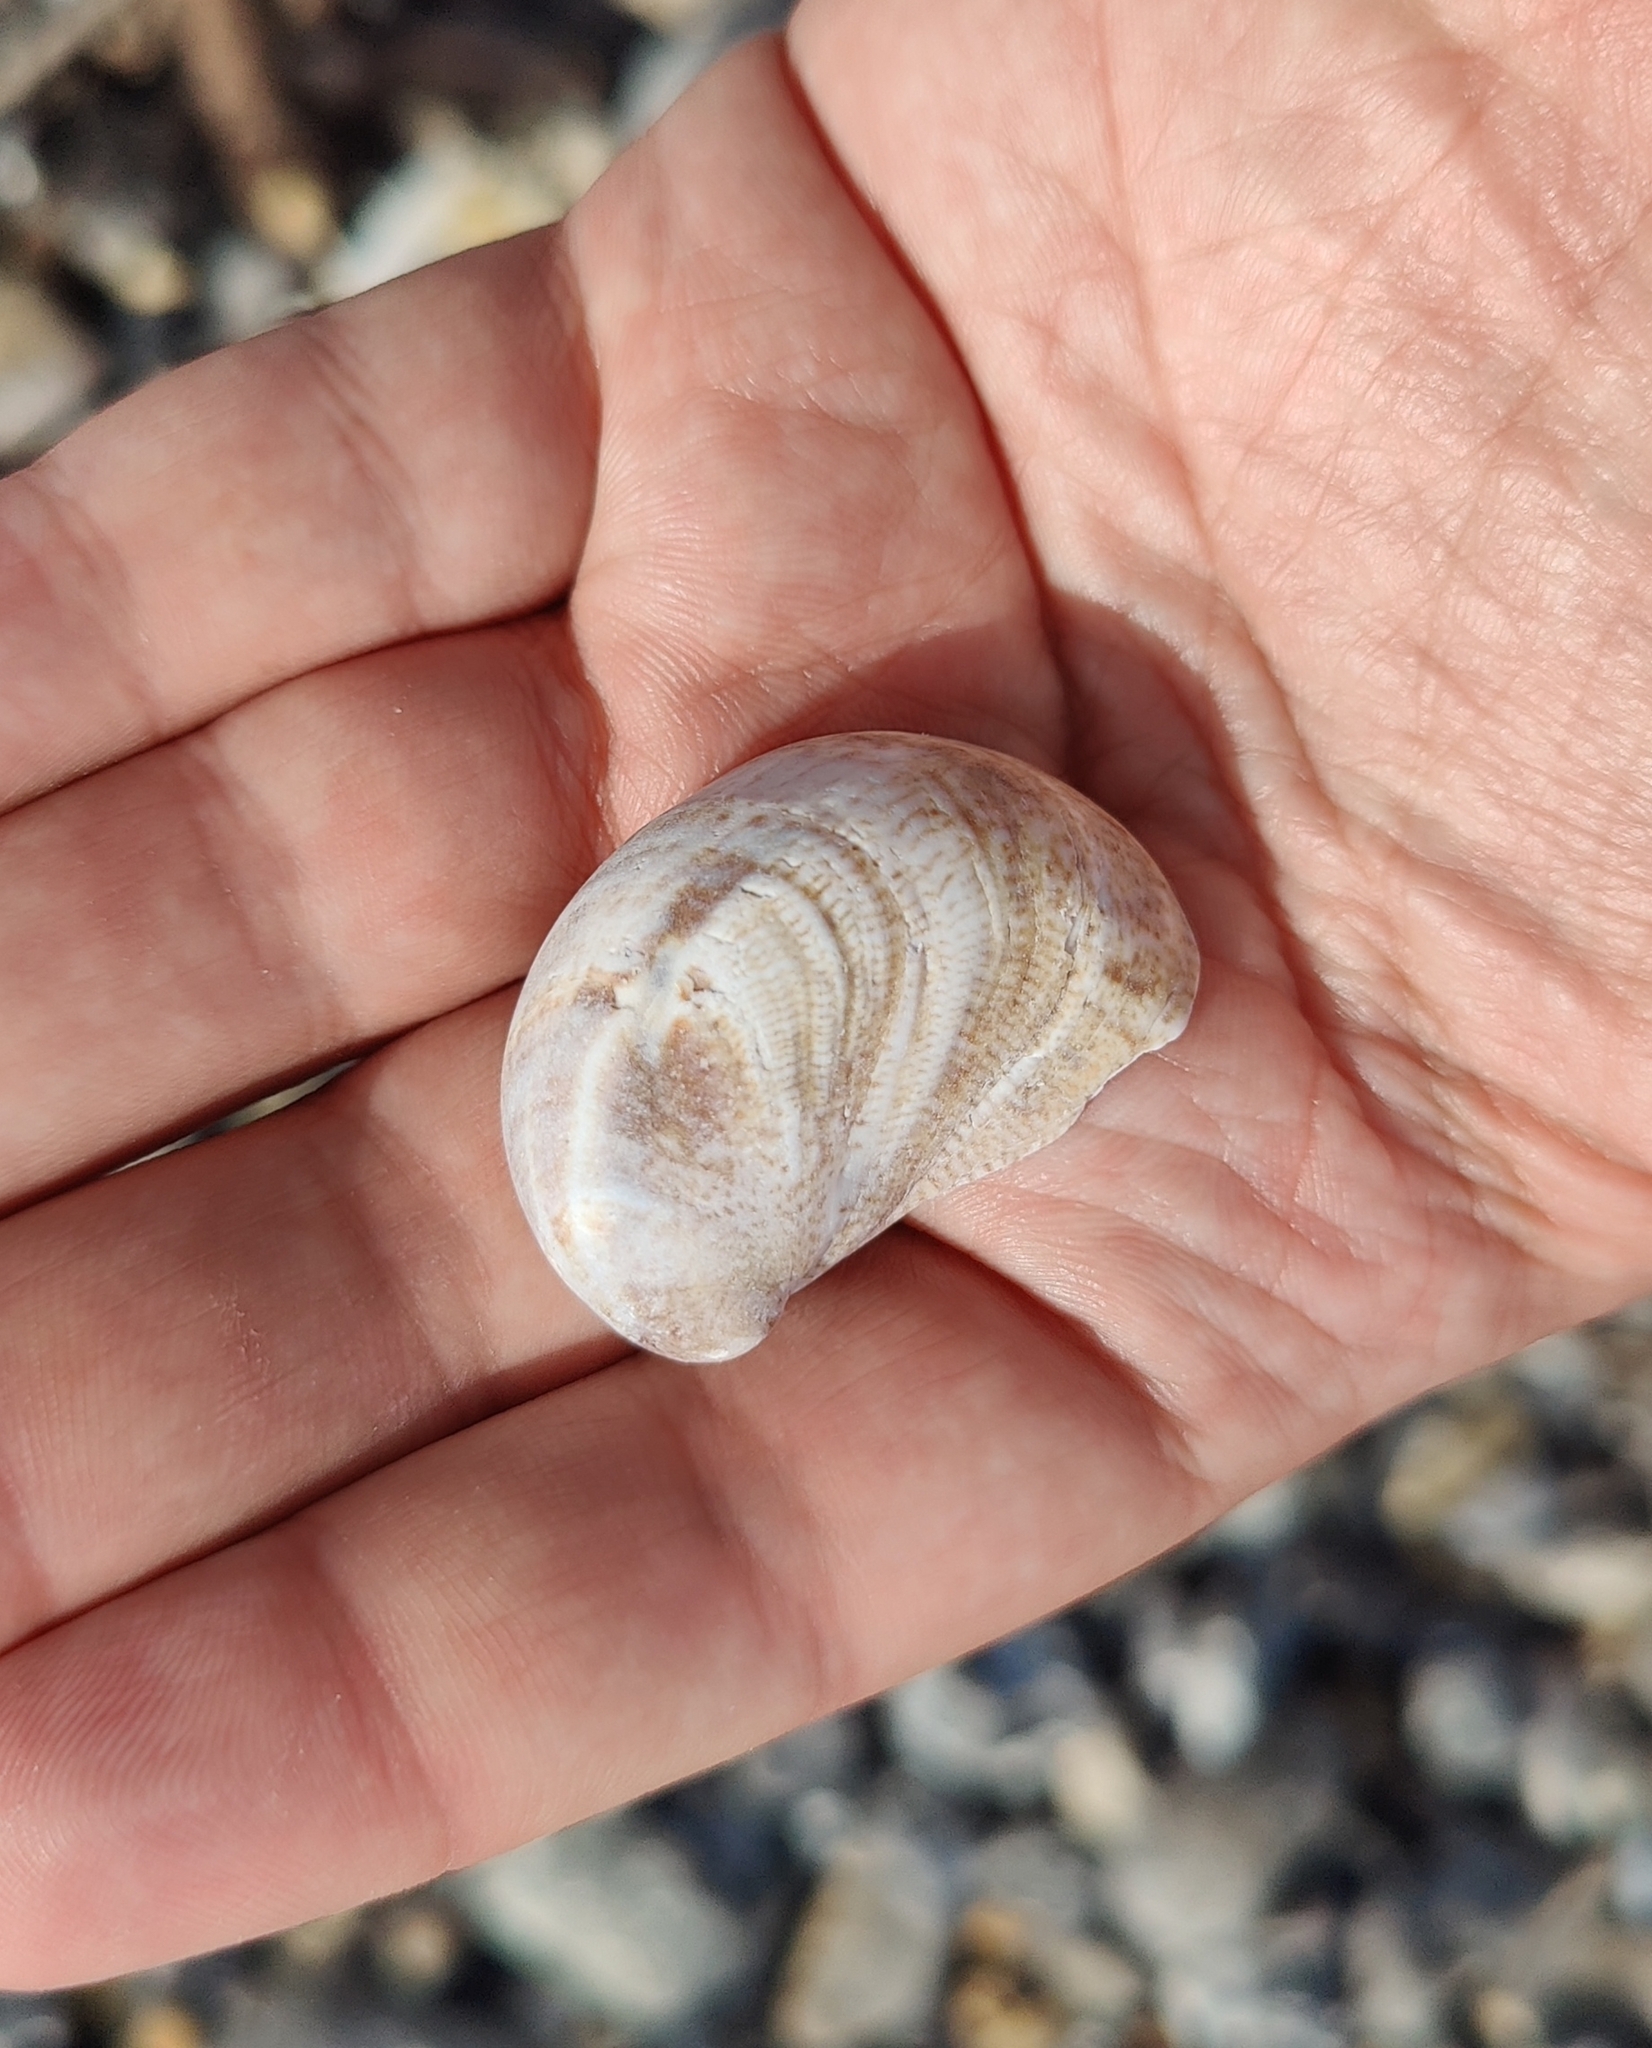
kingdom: Animalia
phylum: Mollusca
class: Gastropoda
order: Littorinimorpha
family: Calyptraeidae
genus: Crepidula
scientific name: Crepidula fornicata
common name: Slipper limpet
